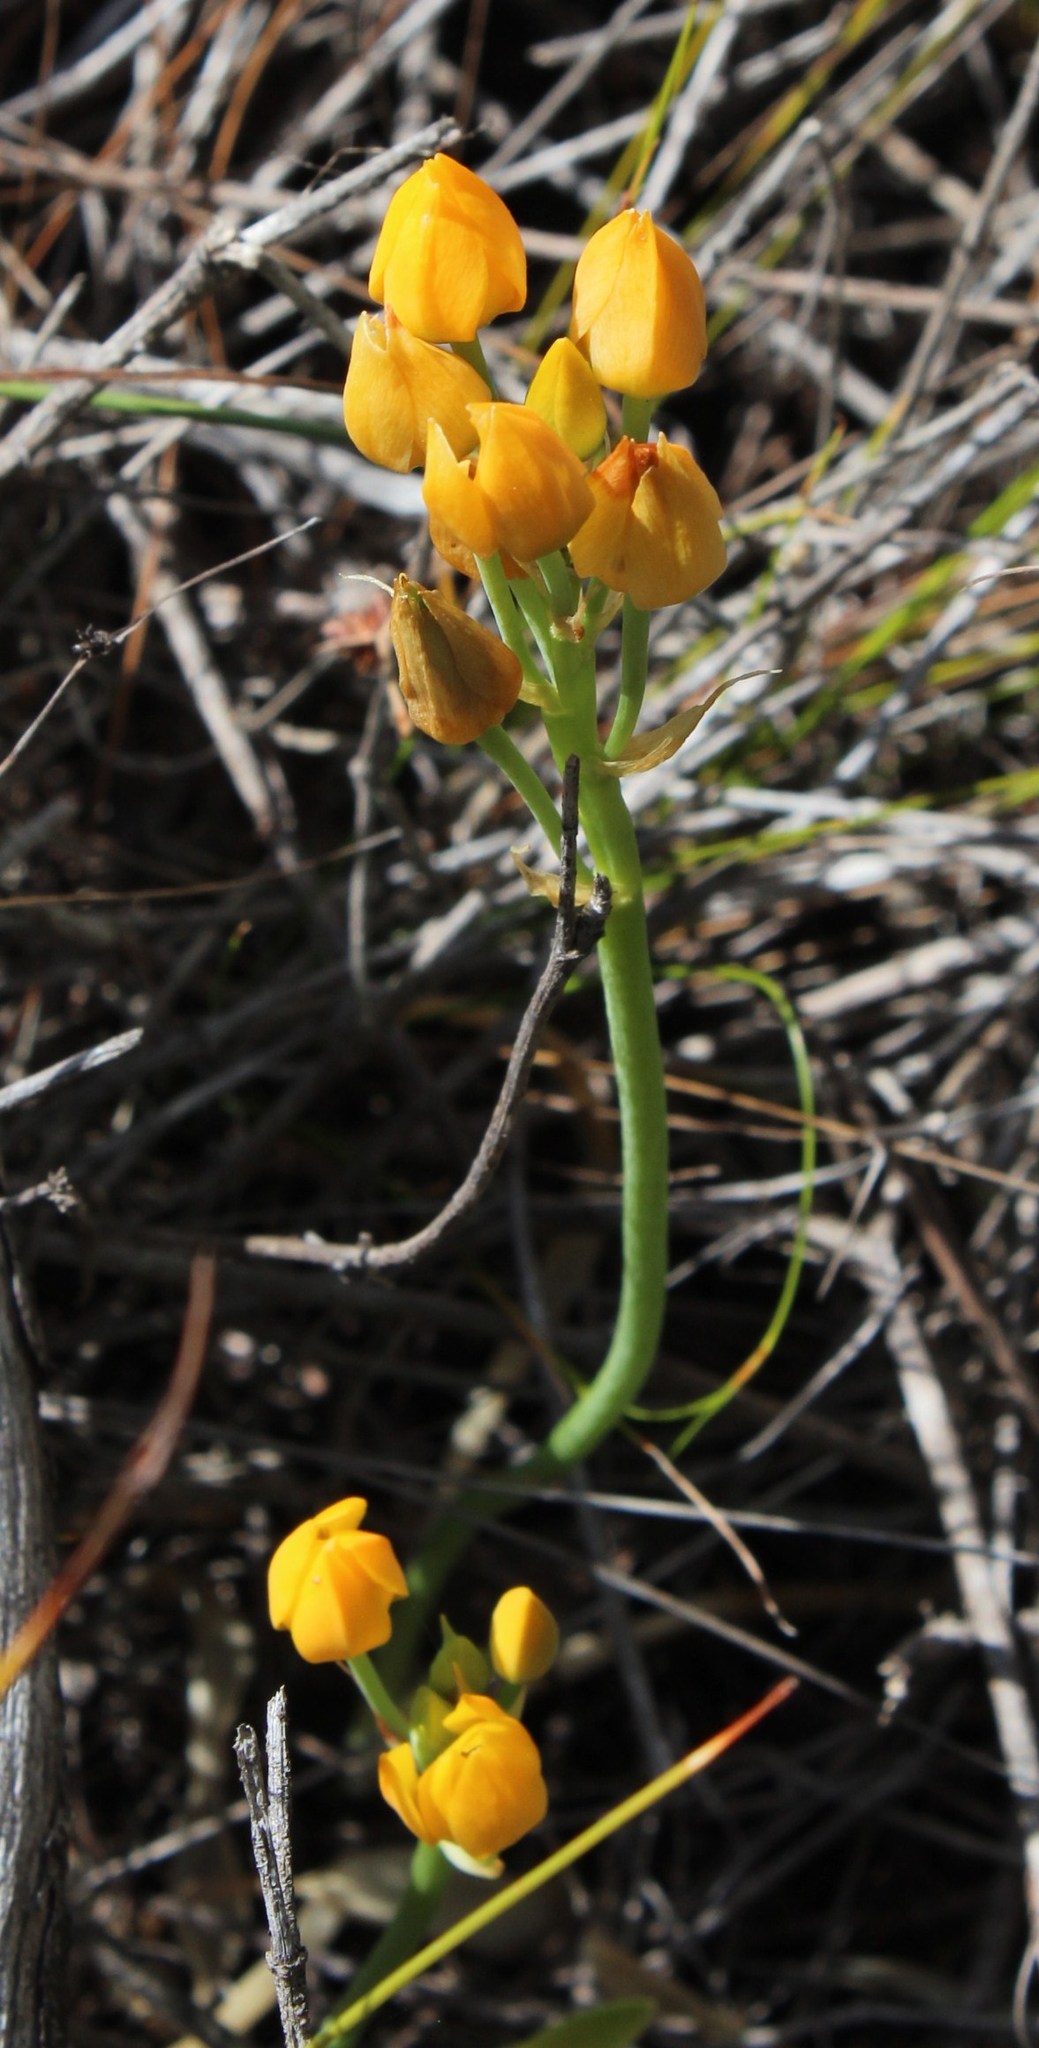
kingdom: Plantae
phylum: Tracheophyta
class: Liliopsida
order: Asparagales
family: Asparagaceae
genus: Ornithogalum
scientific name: Ornithogalum dubium
